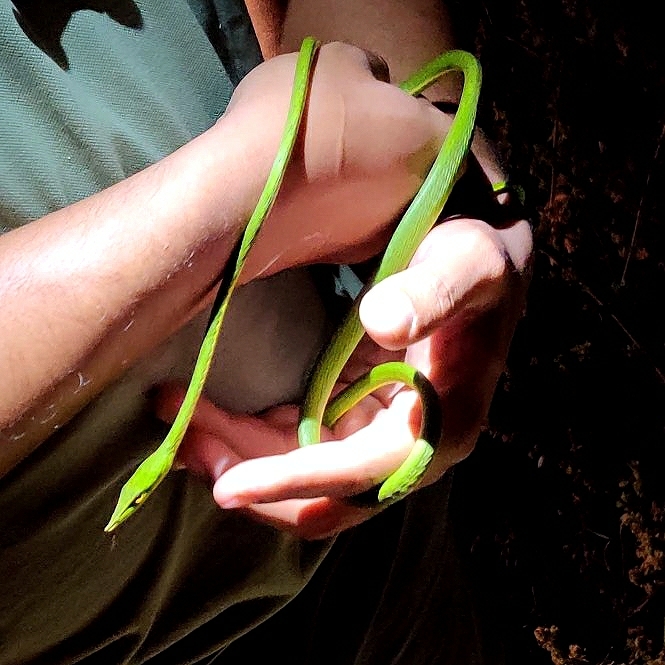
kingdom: Animalia
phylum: Chordata
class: Squamata
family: Colubridae
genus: Ahaetulla
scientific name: Ahaetulla oxyrhyncha
